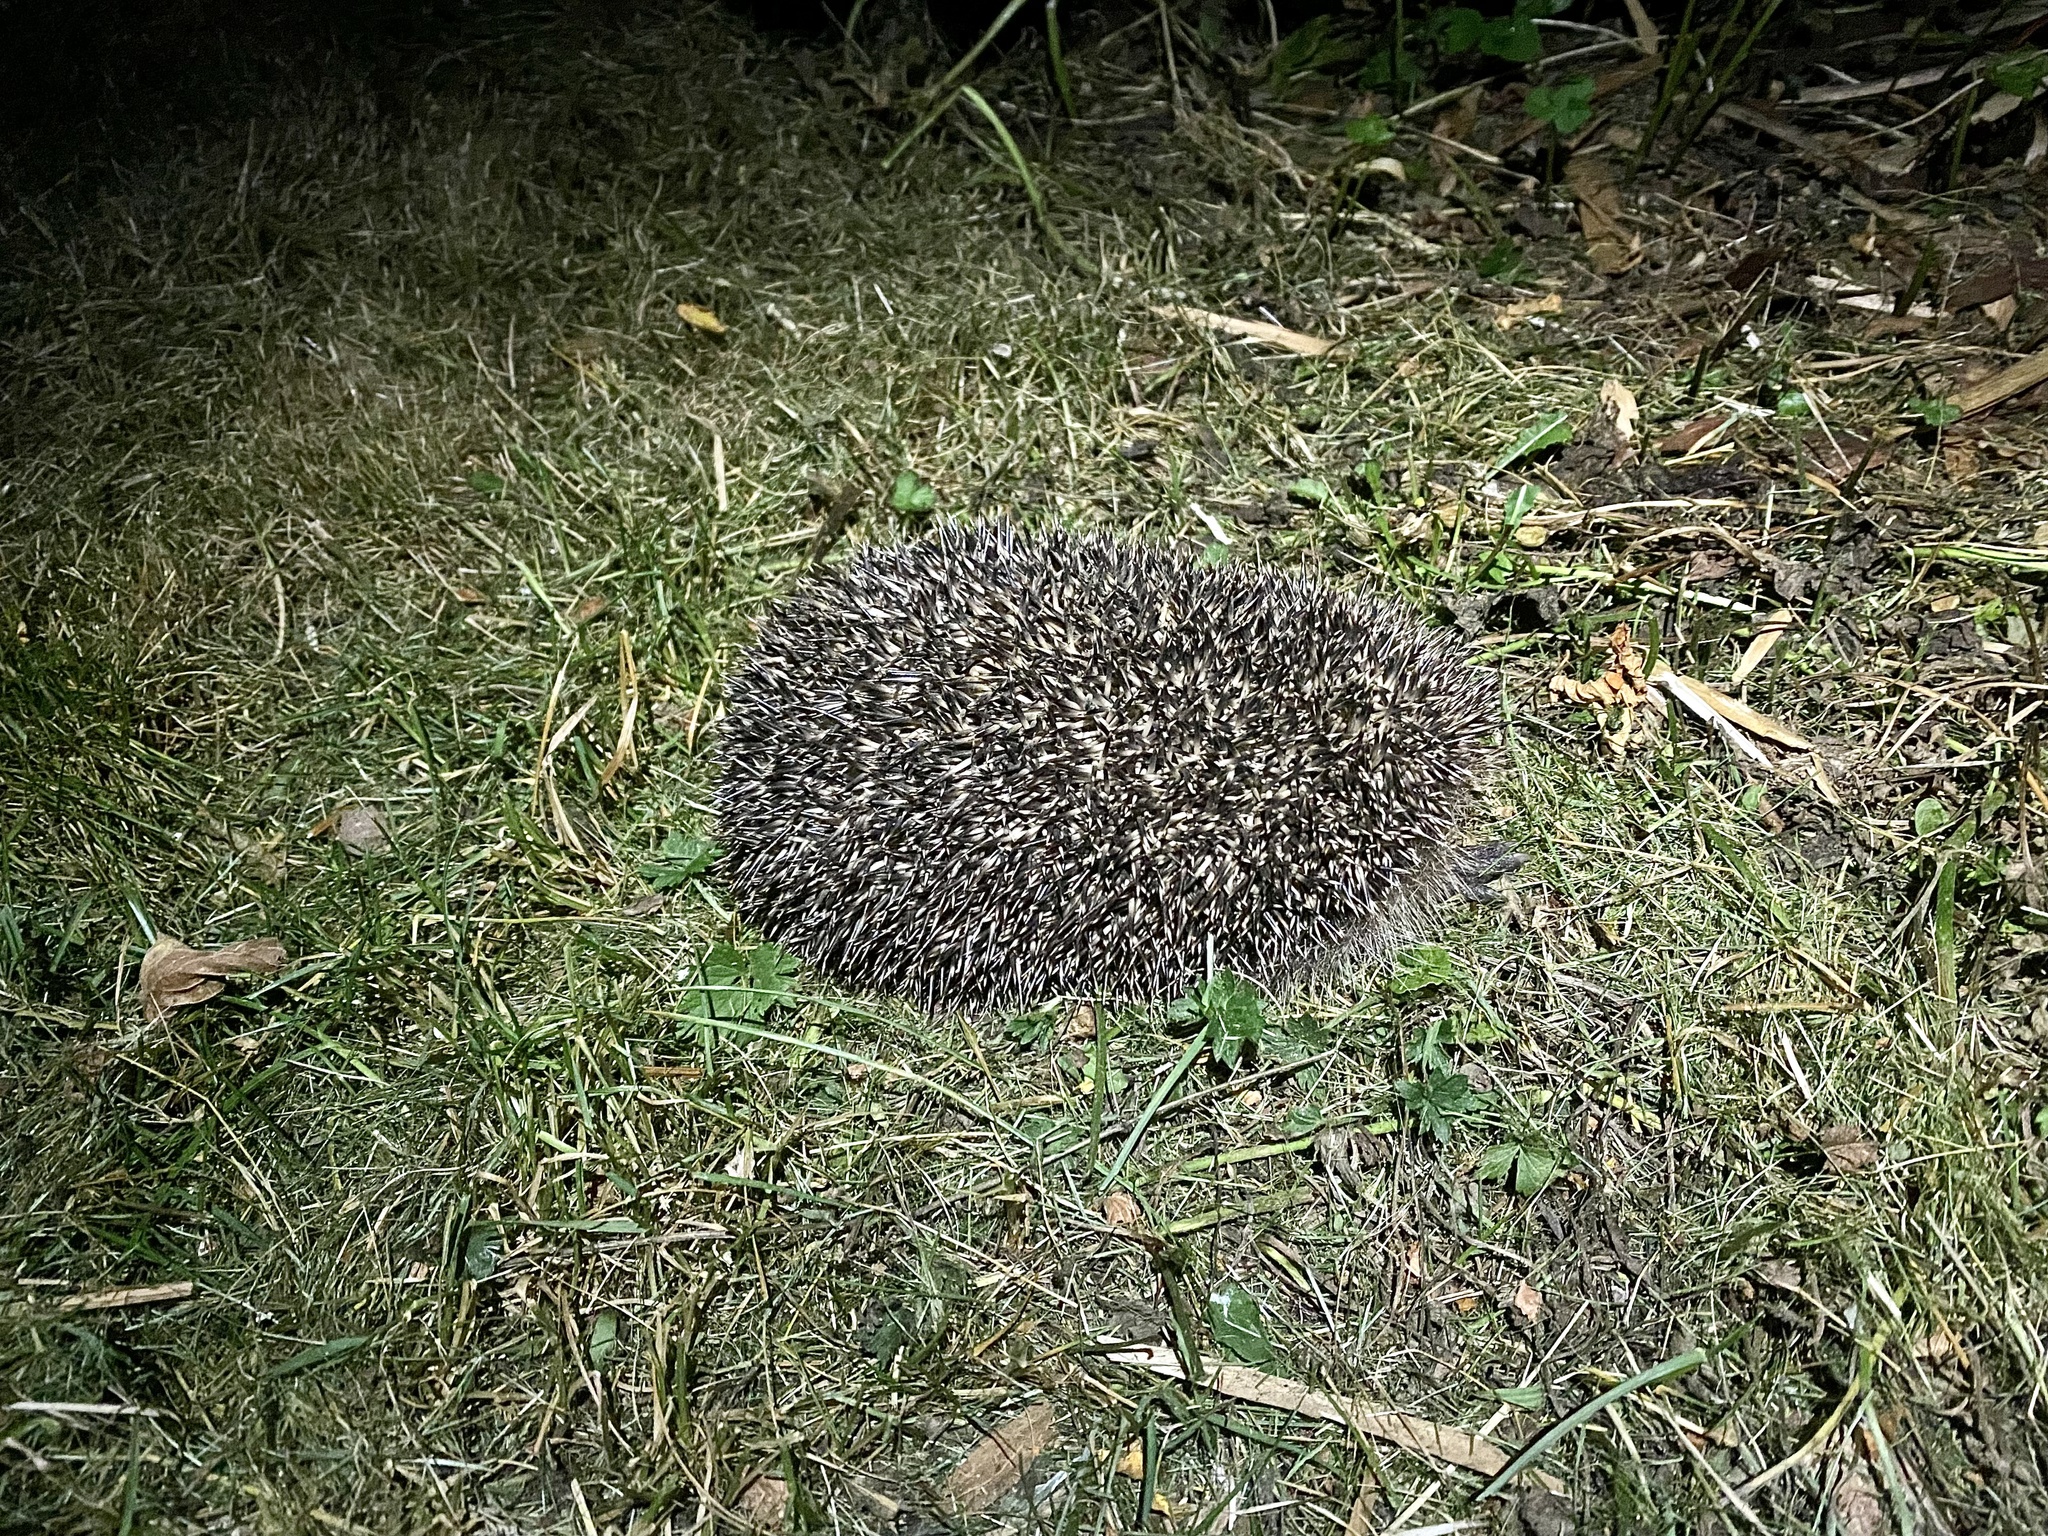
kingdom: Animalia
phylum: Chordata
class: Mammalia
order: Erinaceomorpha
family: Erinaceidae
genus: Erinaceus
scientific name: Erinaceus europaeus
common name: West european hedgehog
